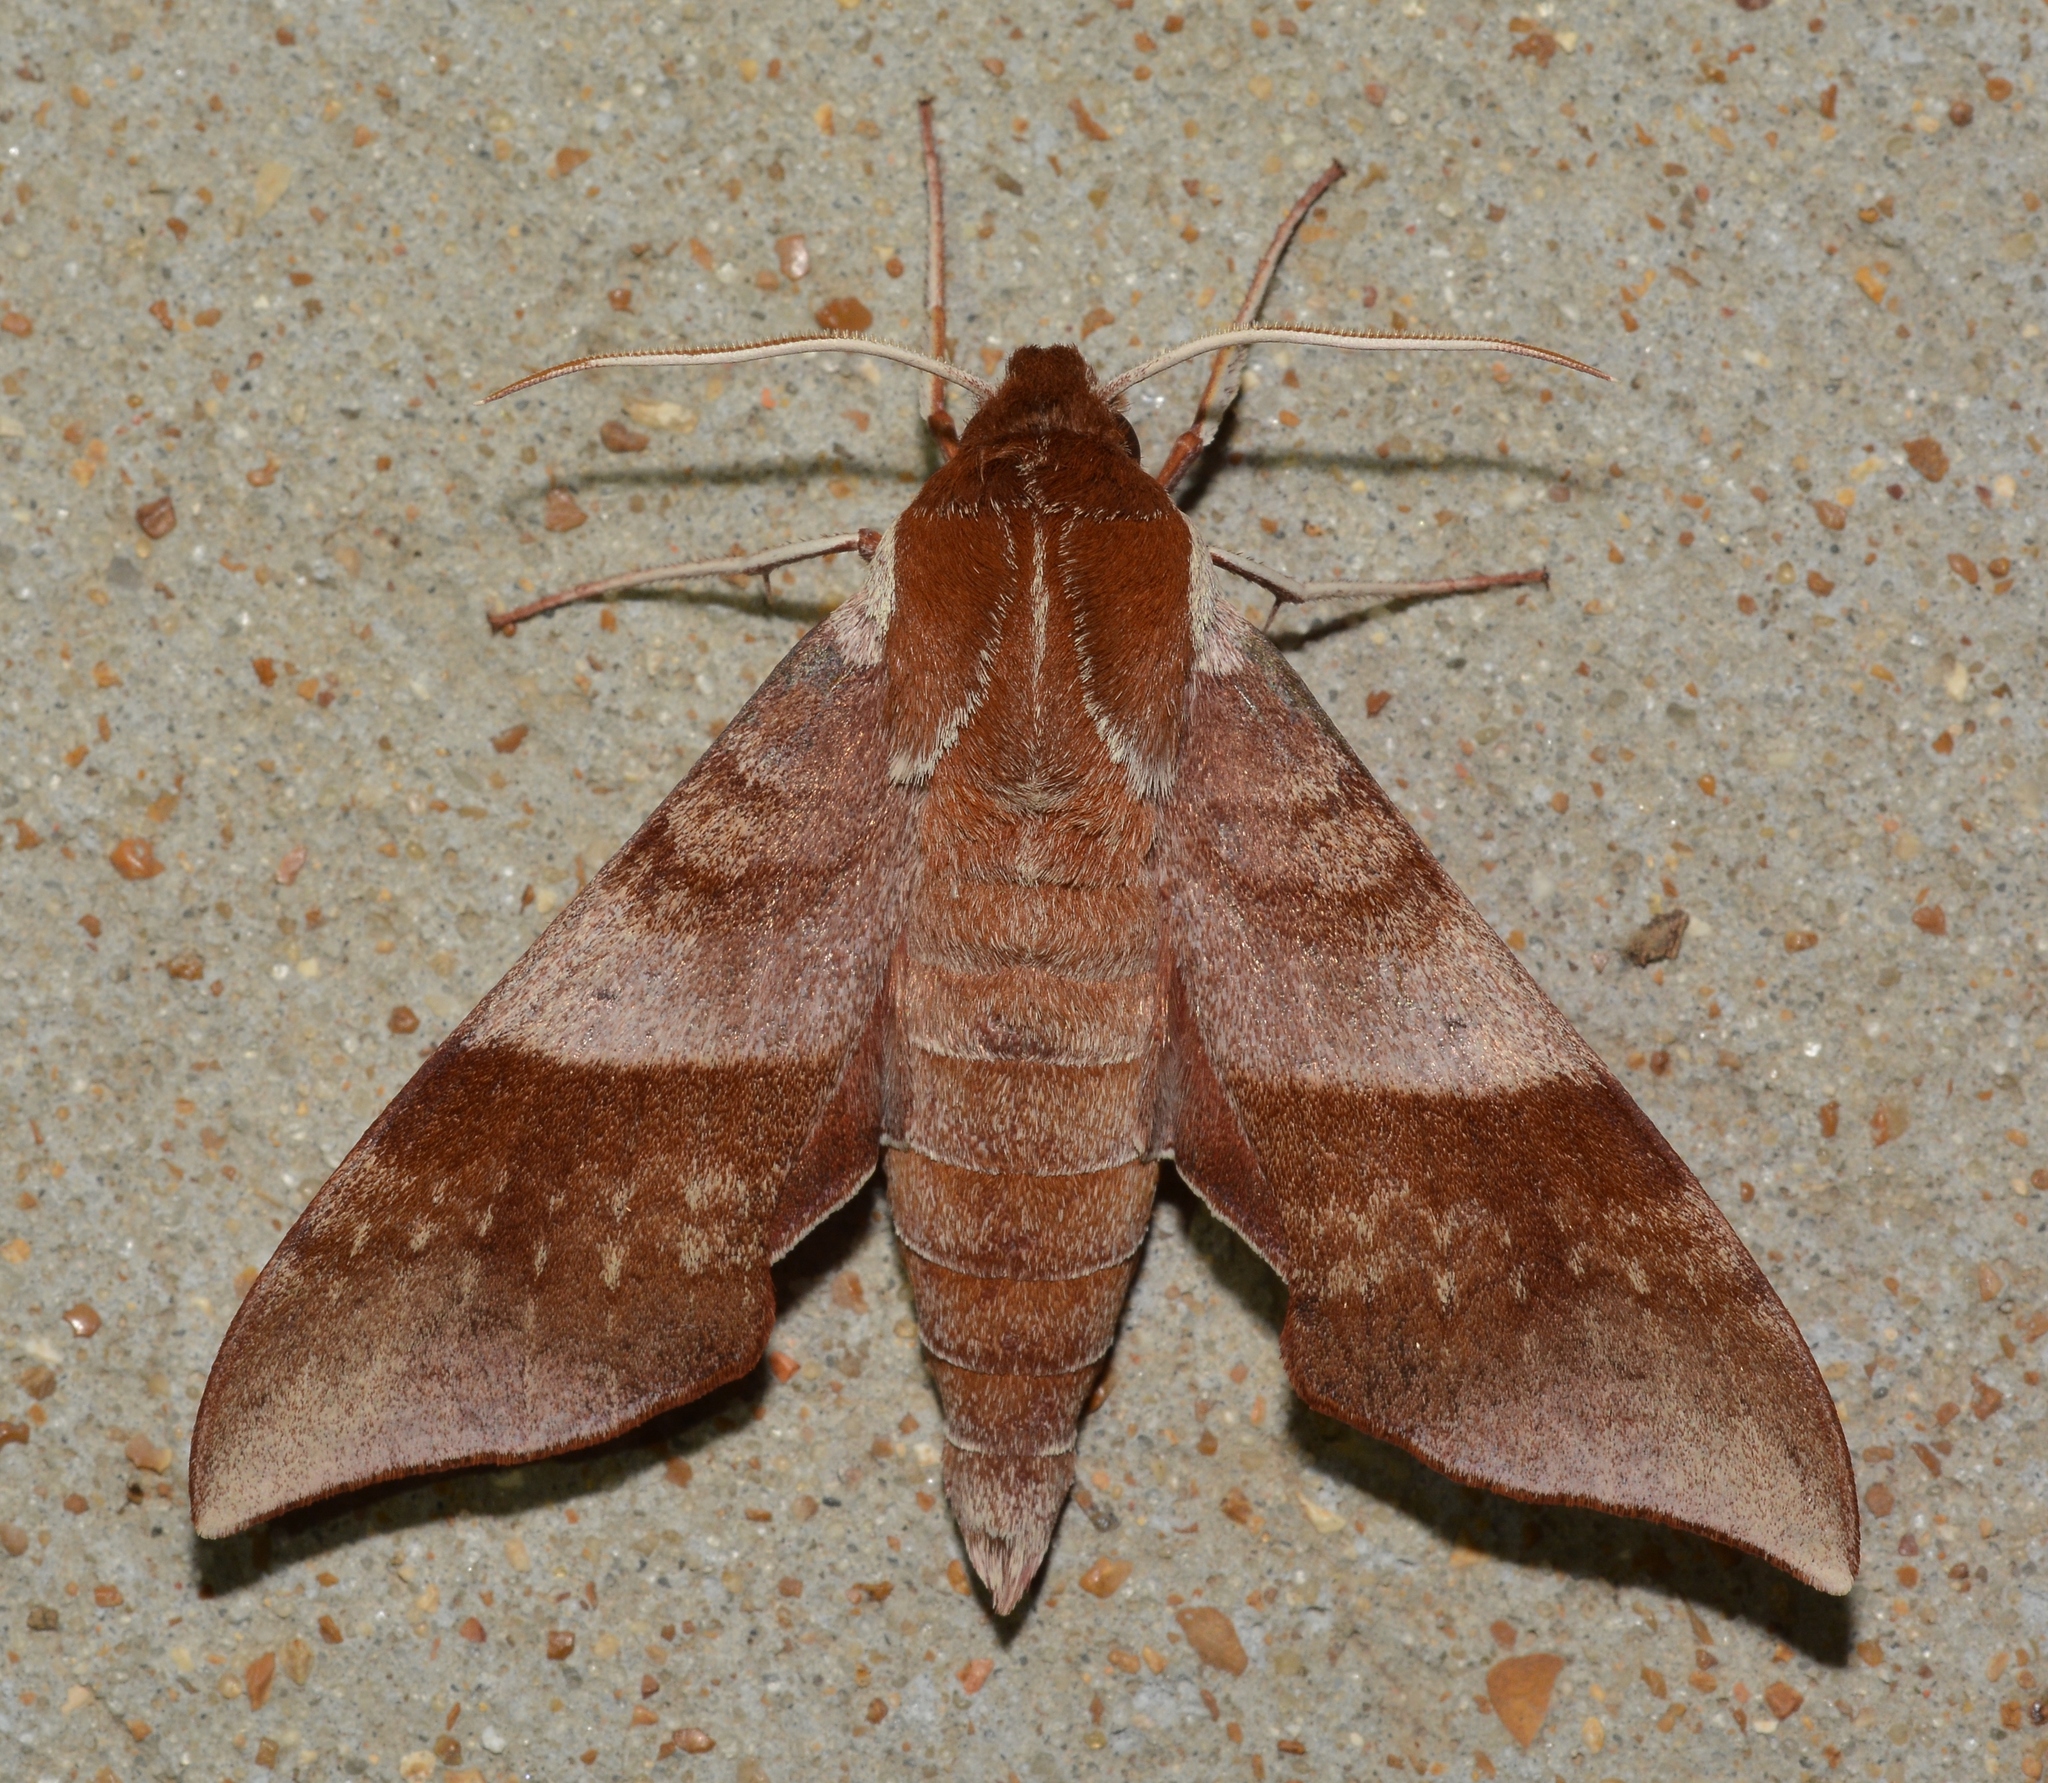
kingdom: Animalia
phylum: Arthropoda
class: Insecta
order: Lepidoptera
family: Sphingidae
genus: Darapsa
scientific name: Darapsa choerilus
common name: Azalea sphinx
